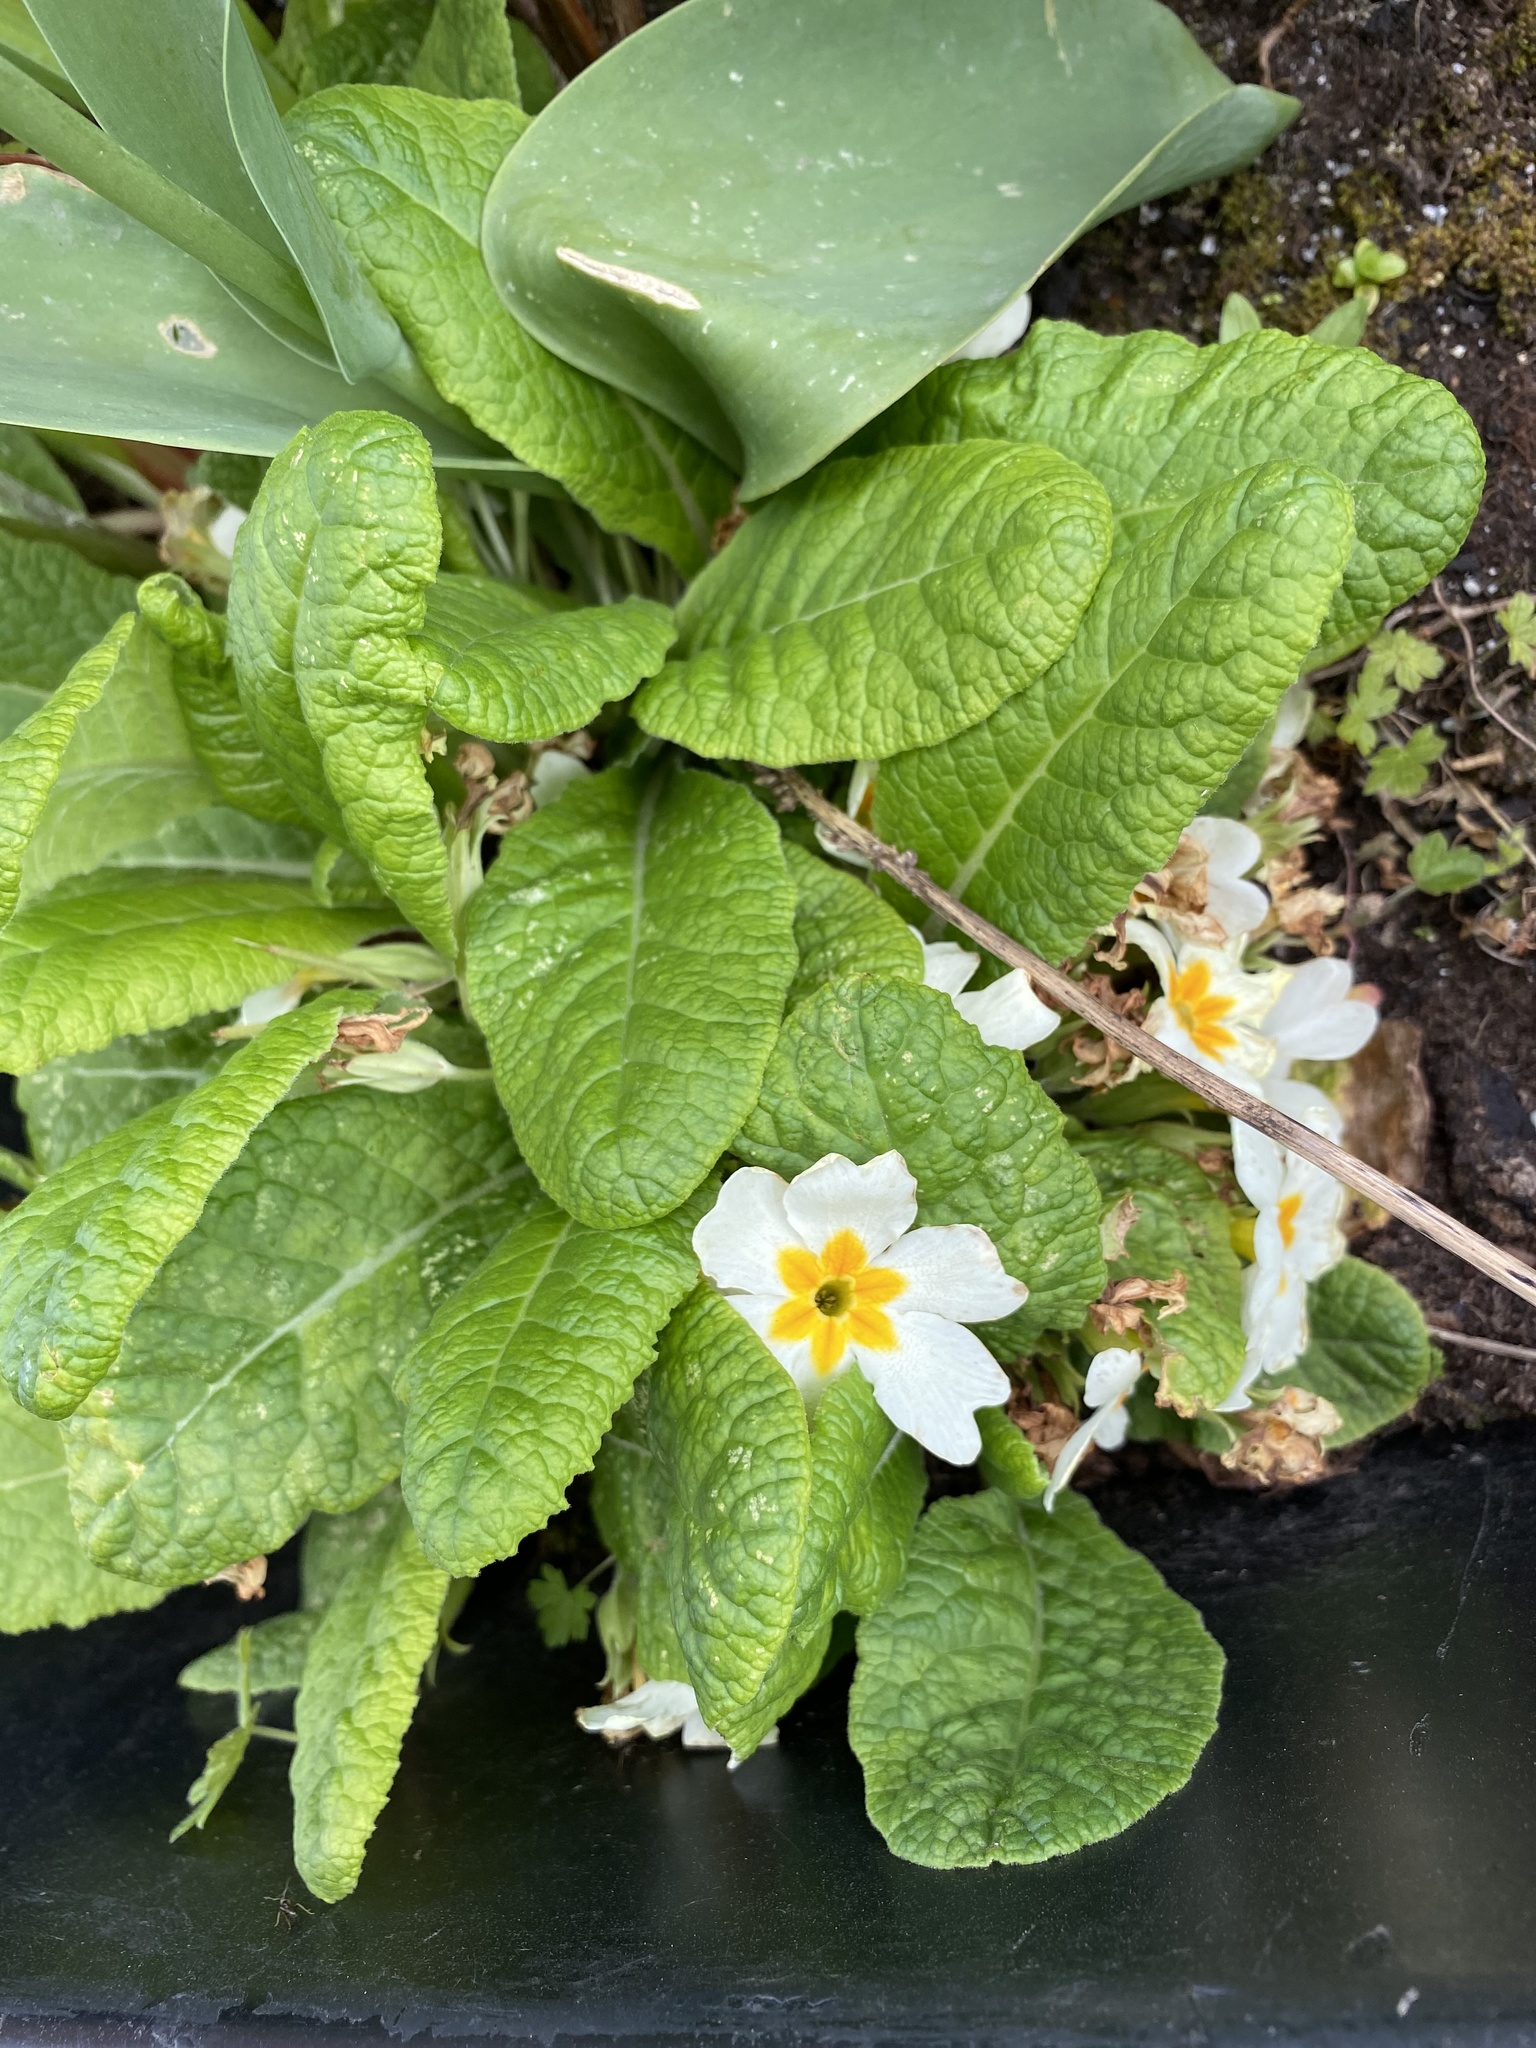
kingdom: Plantae
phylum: Tracheophyta
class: Magnoliopsida
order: Ericales
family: Primulaceae
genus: Primula
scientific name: Primula vulgaris
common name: Primrose
